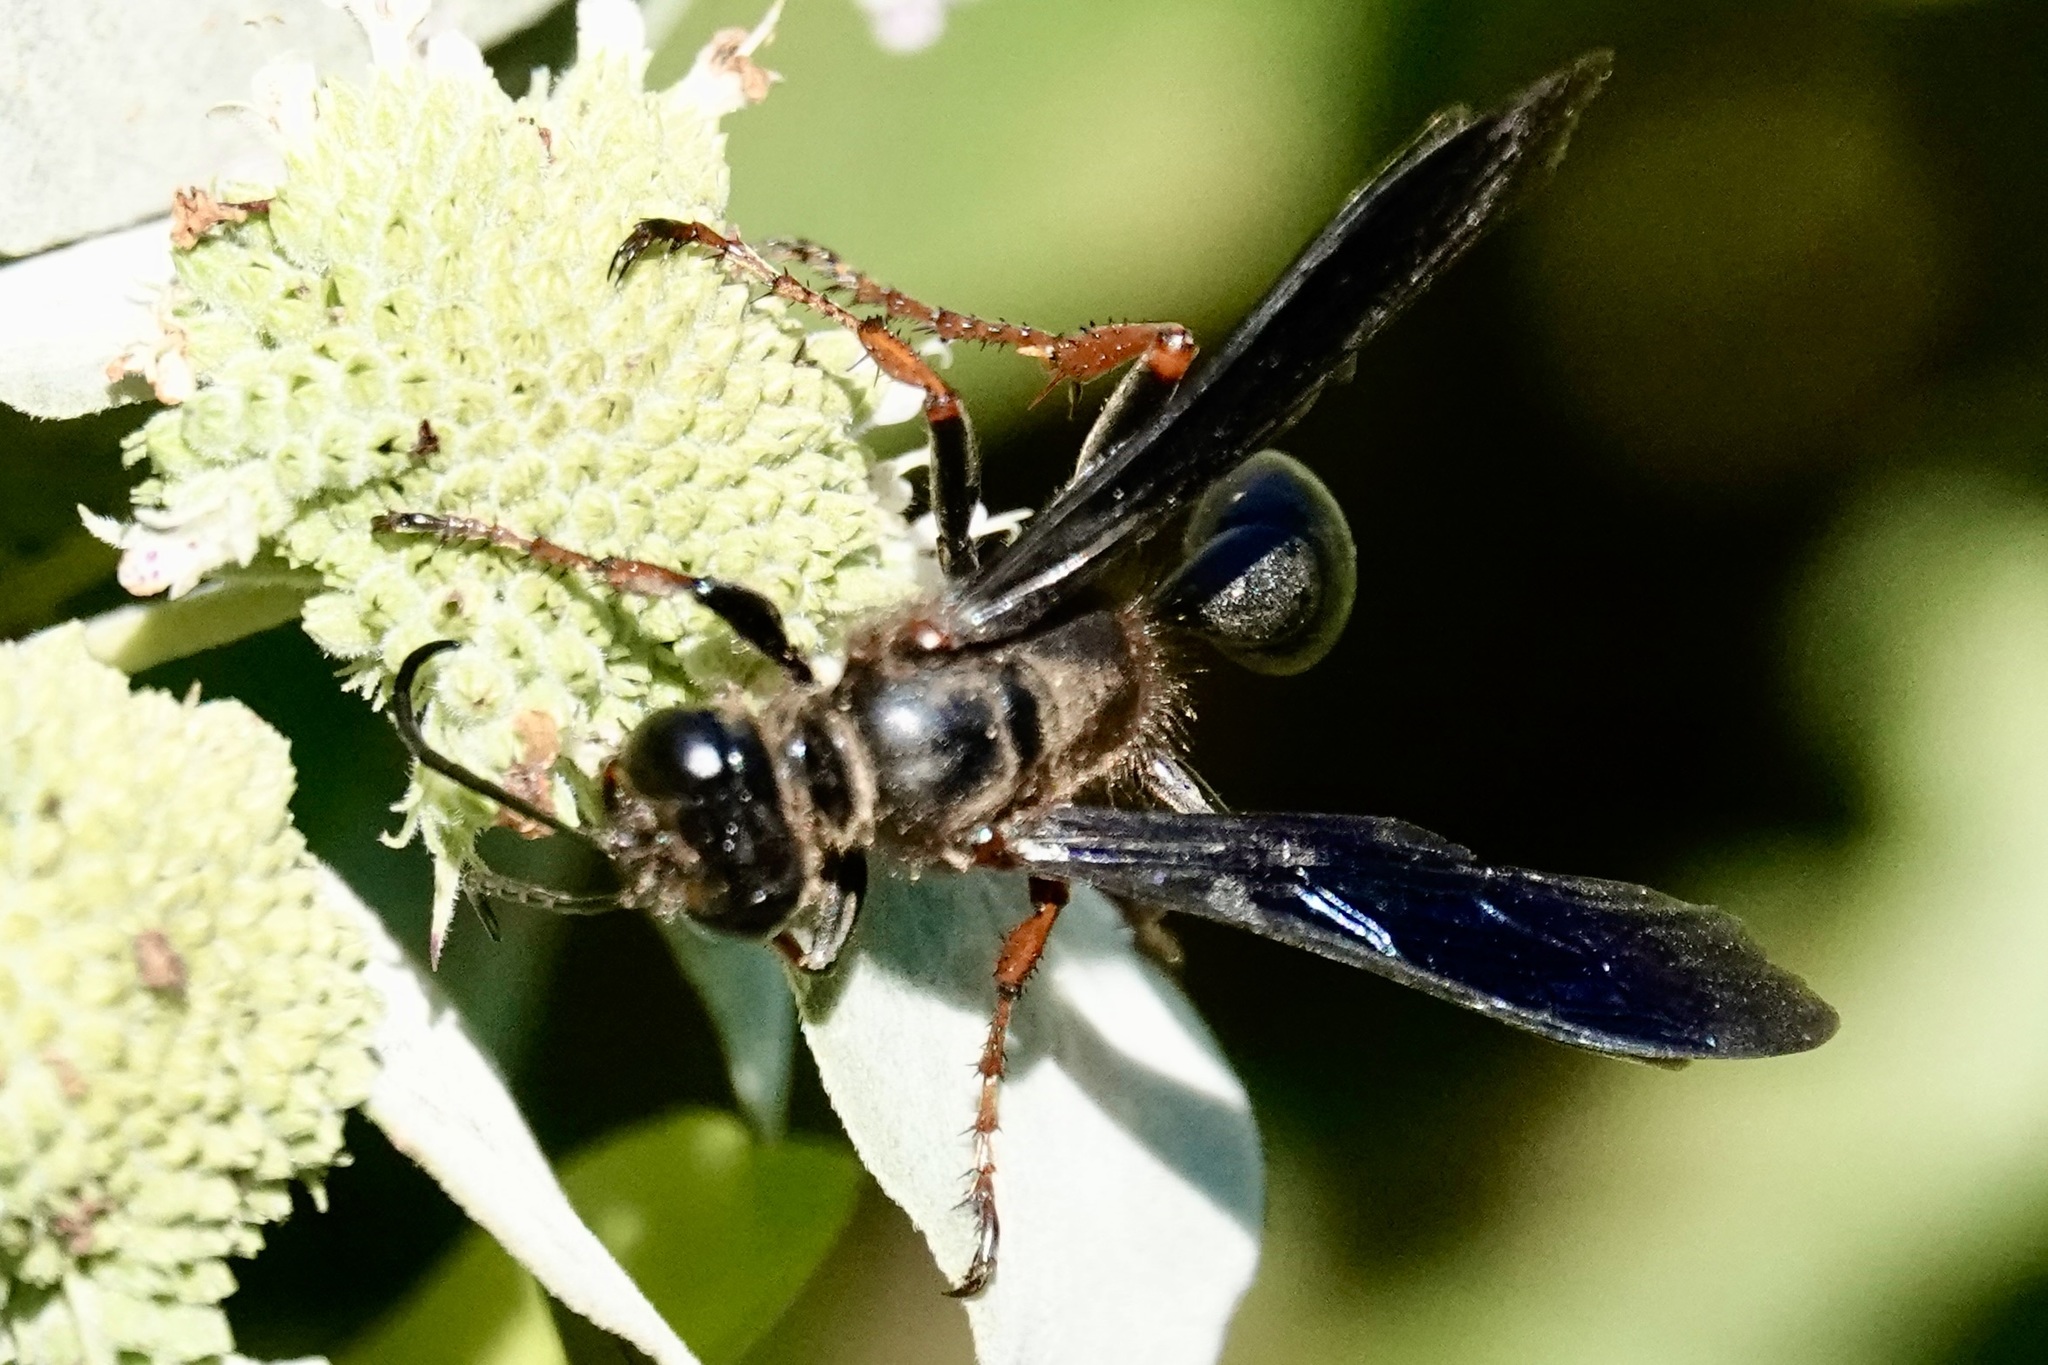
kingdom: Animalia
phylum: Arthropoda
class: Insecta
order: Hymenoptera
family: Sphecidae
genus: Isodontia
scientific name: Isodontia auripes
